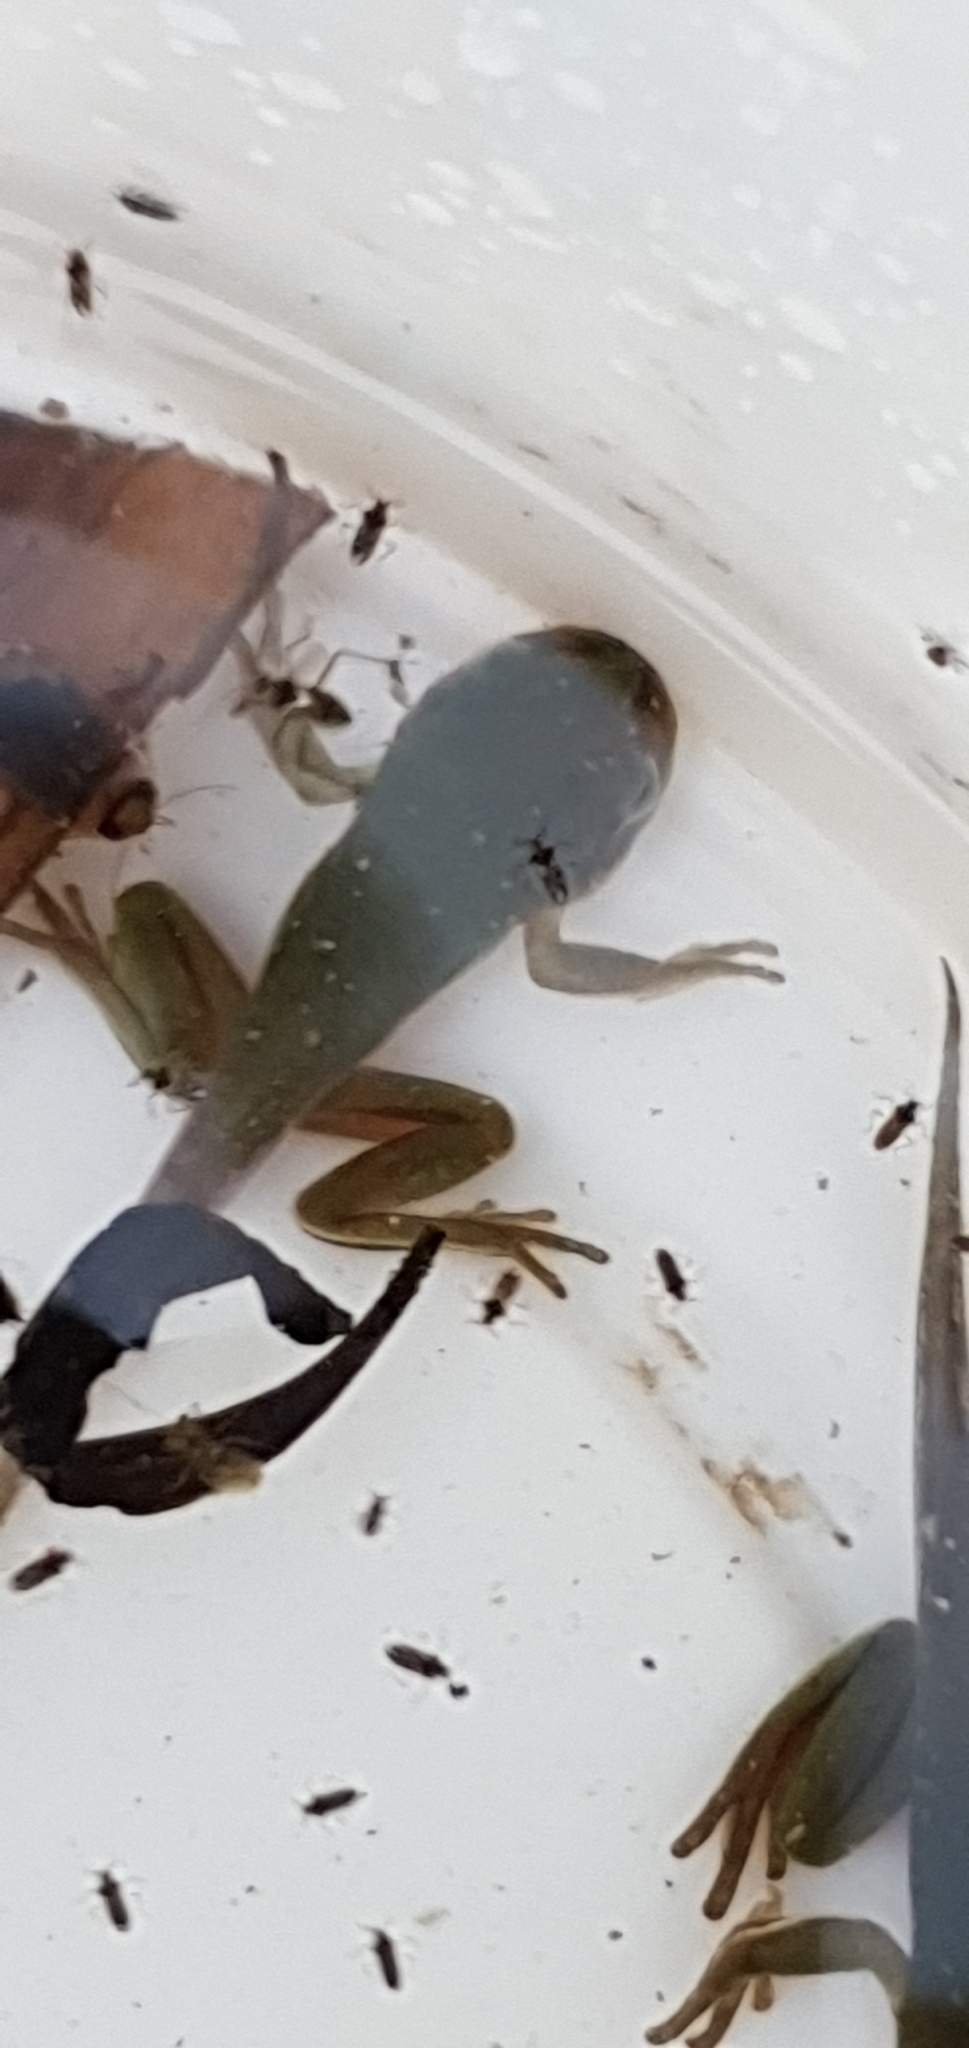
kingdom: Animalia
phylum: Chordata
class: Amphibia
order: Anura
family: Pelodryadidae
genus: Ranoidea
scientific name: Ranoidea caerulea
